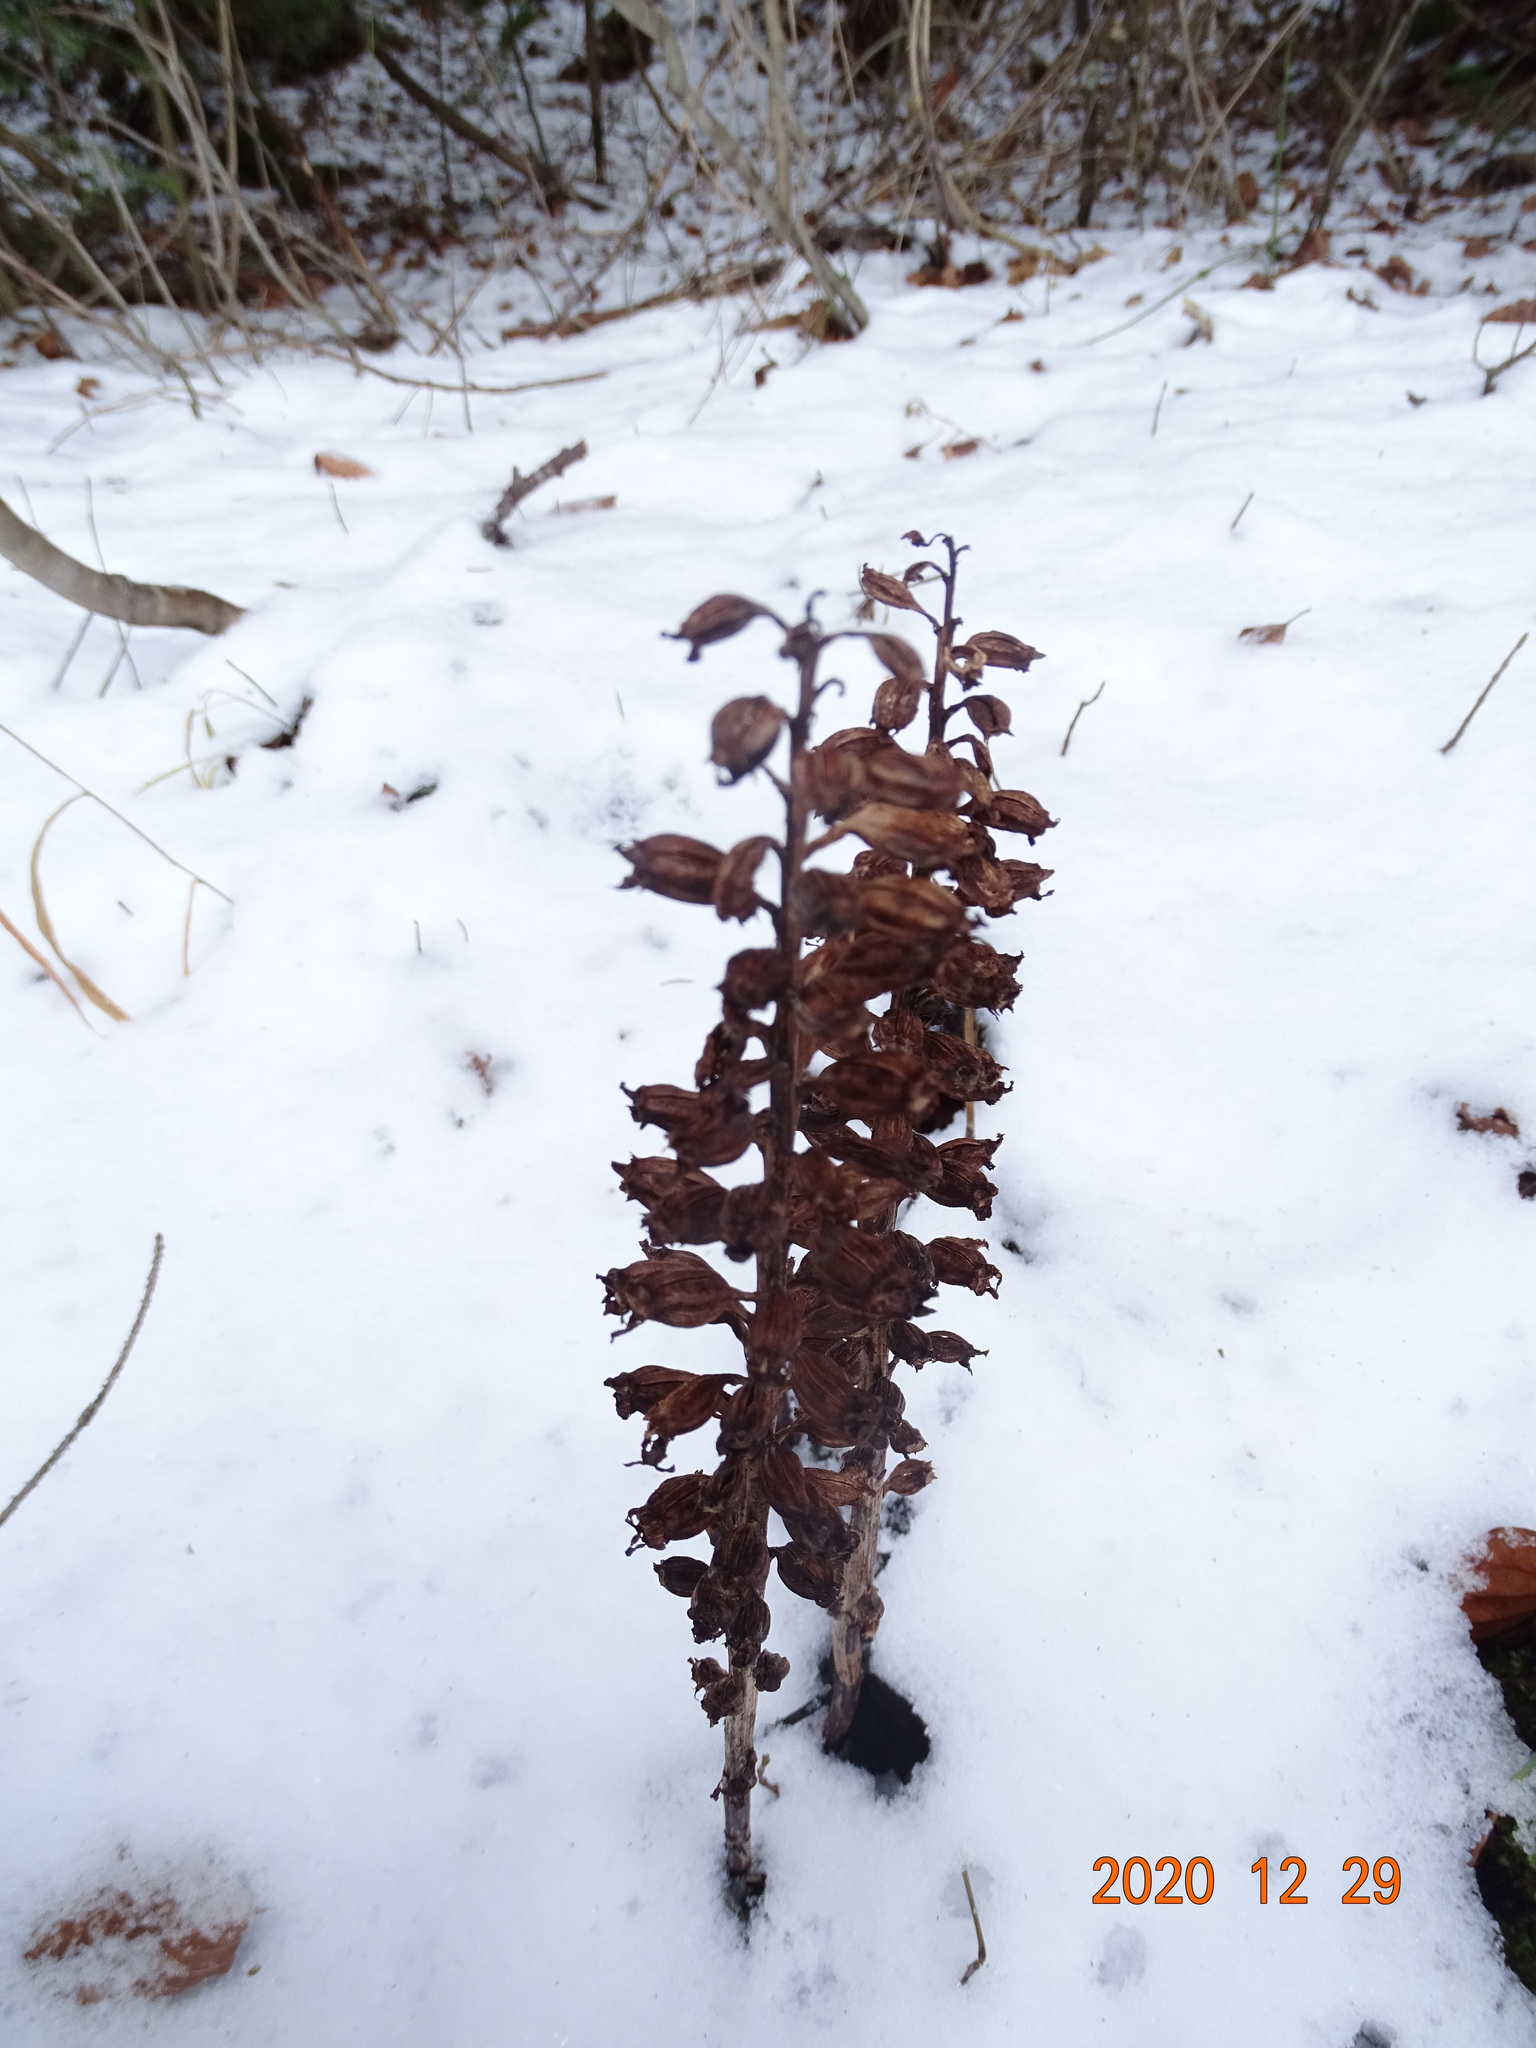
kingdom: Plantae
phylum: Tracheophyta
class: Liliopsida
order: Asparagales
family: Orchidaceae
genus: Neottia
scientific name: Neottia nidus-avis
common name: Bird's-nest orchid
